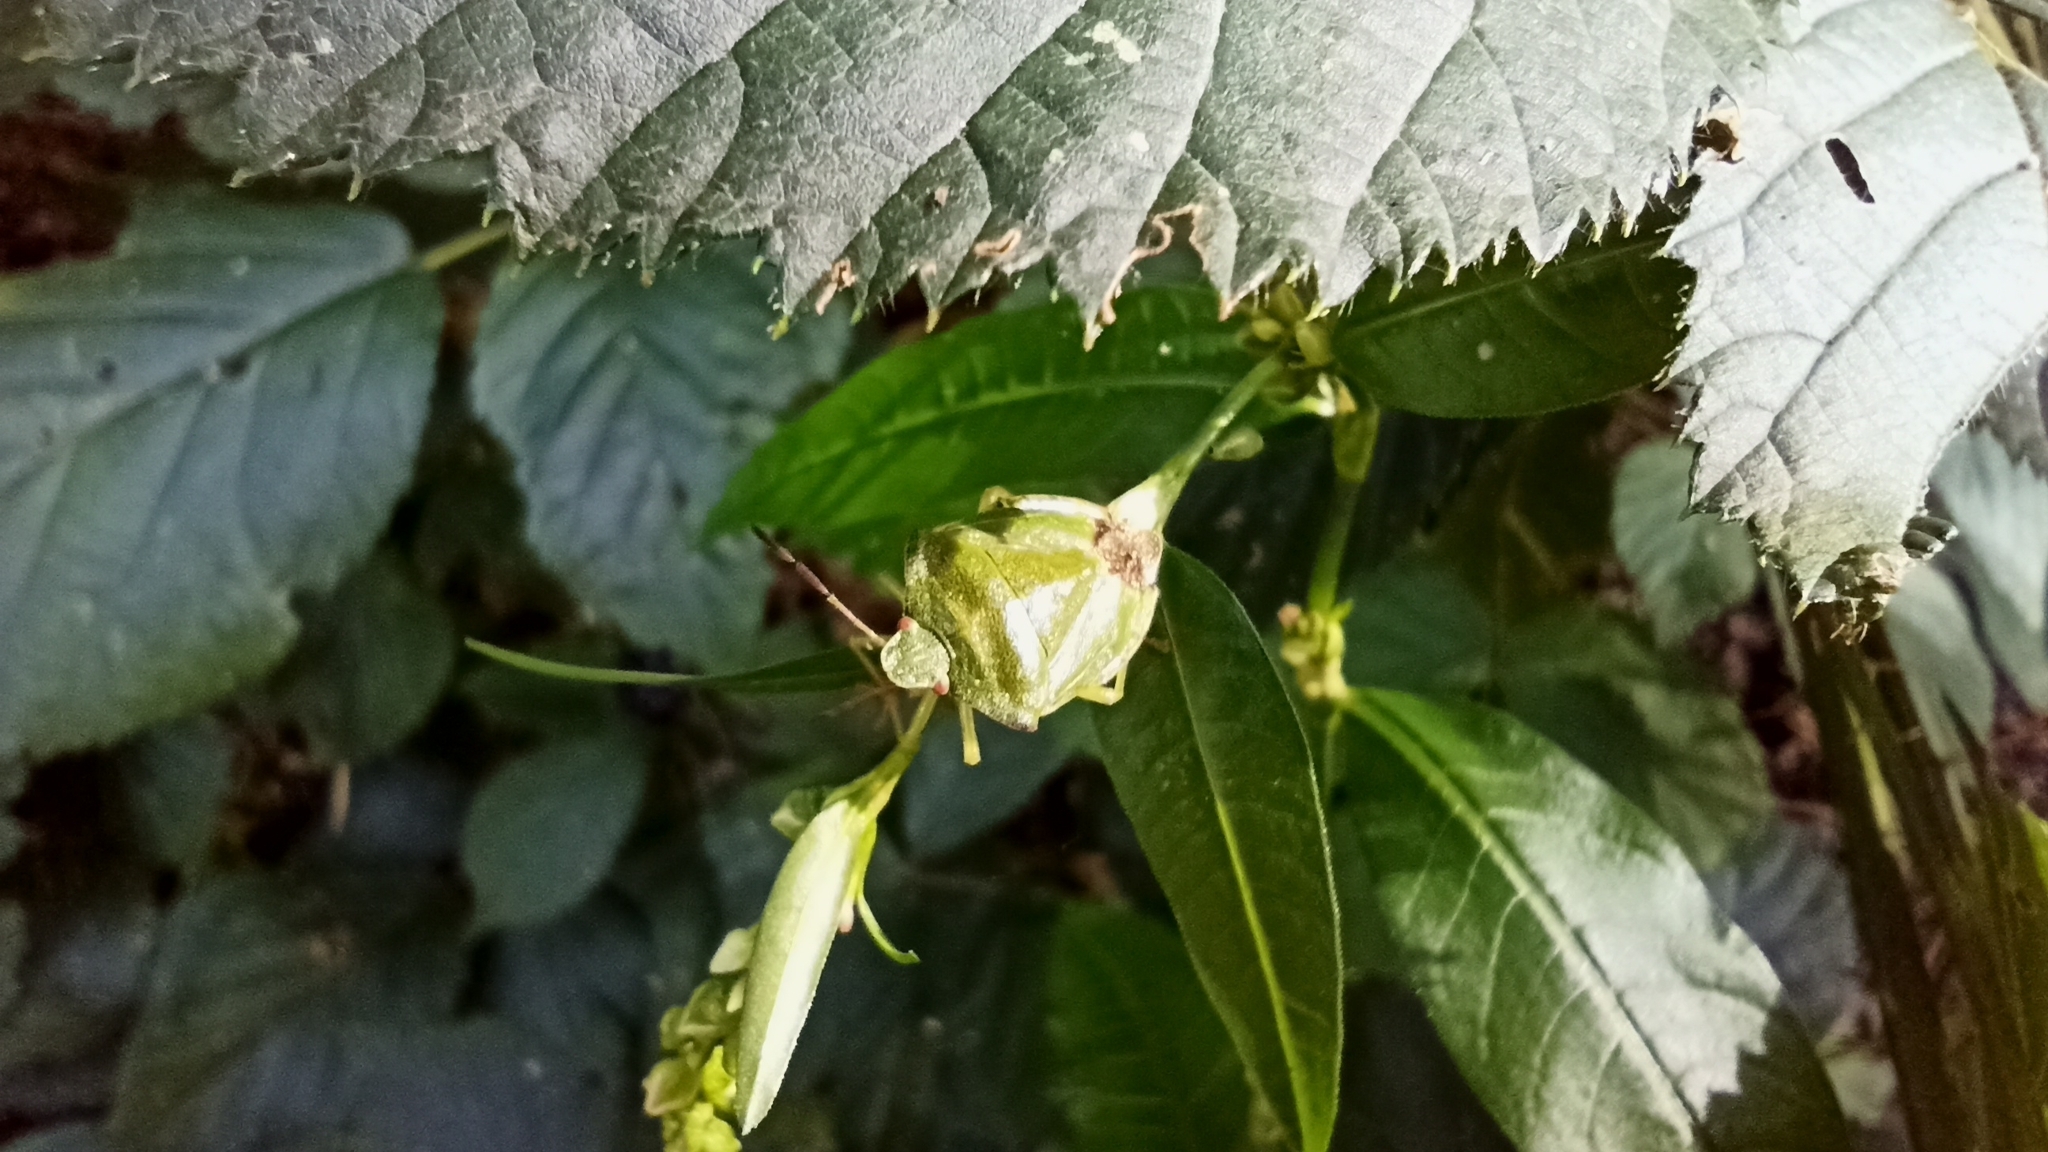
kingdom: Animalia
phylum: Arthropoda
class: Insecta
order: Hemiptera
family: Pentatomidae
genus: Palomena
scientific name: Palomena prasina
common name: Green shieldbug
